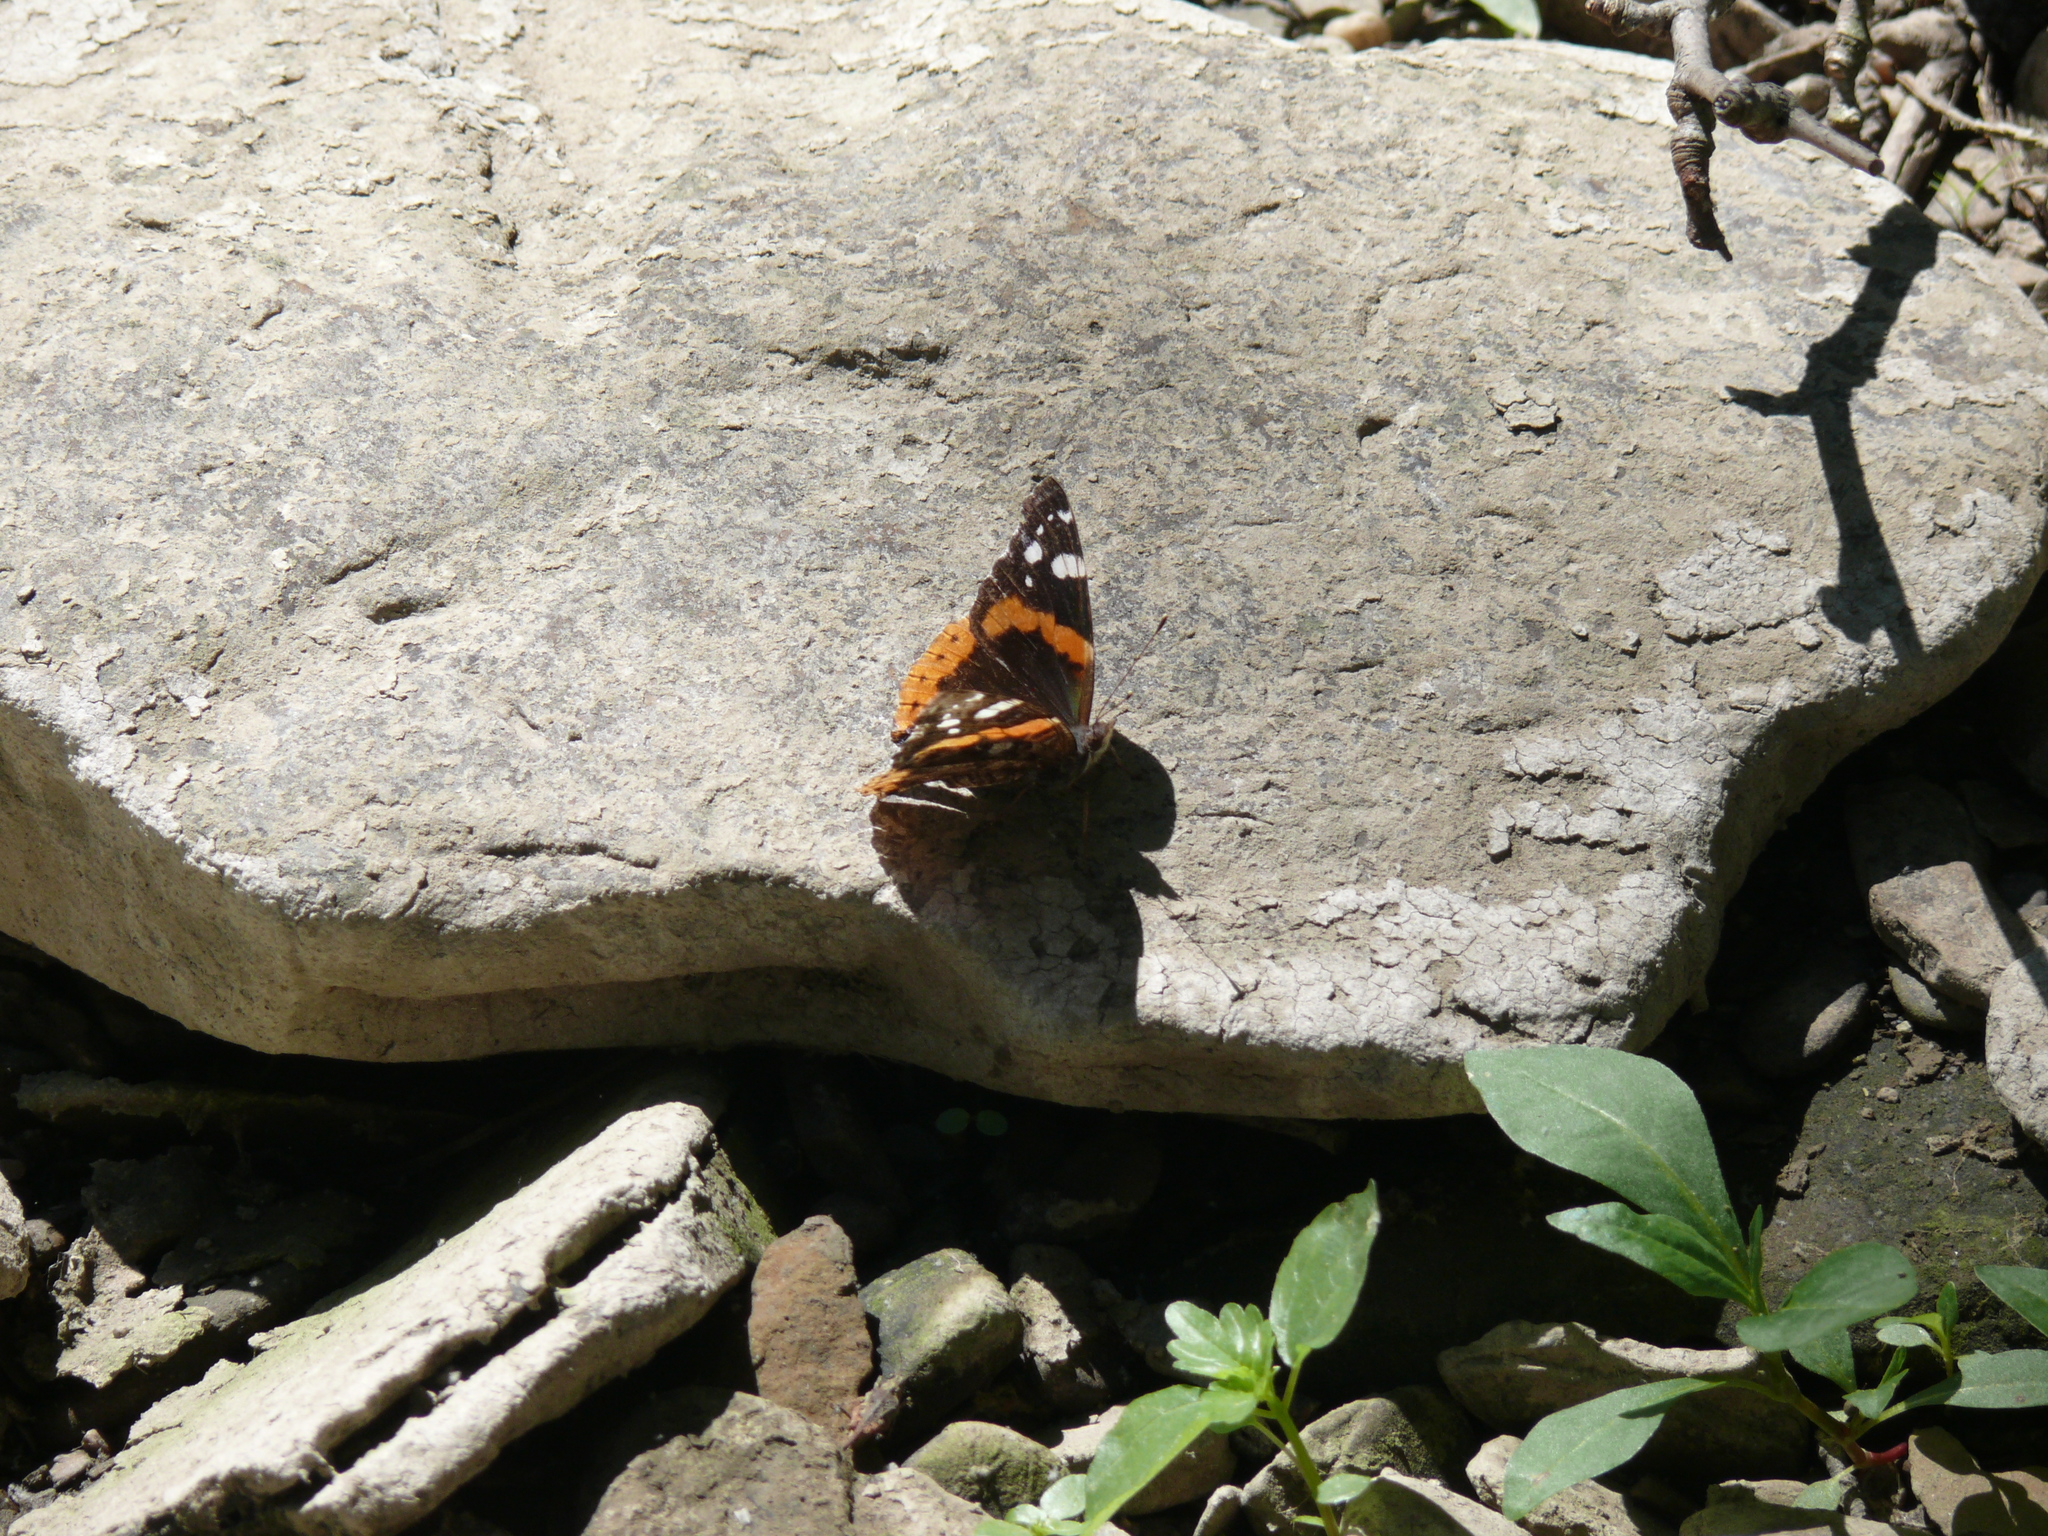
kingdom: Animalia
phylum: Arthropoda
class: Insecta
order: Lepidoptera
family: Nymphalidae
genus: Vanessa
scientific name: Vanessa atalanta
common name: Red admiral
